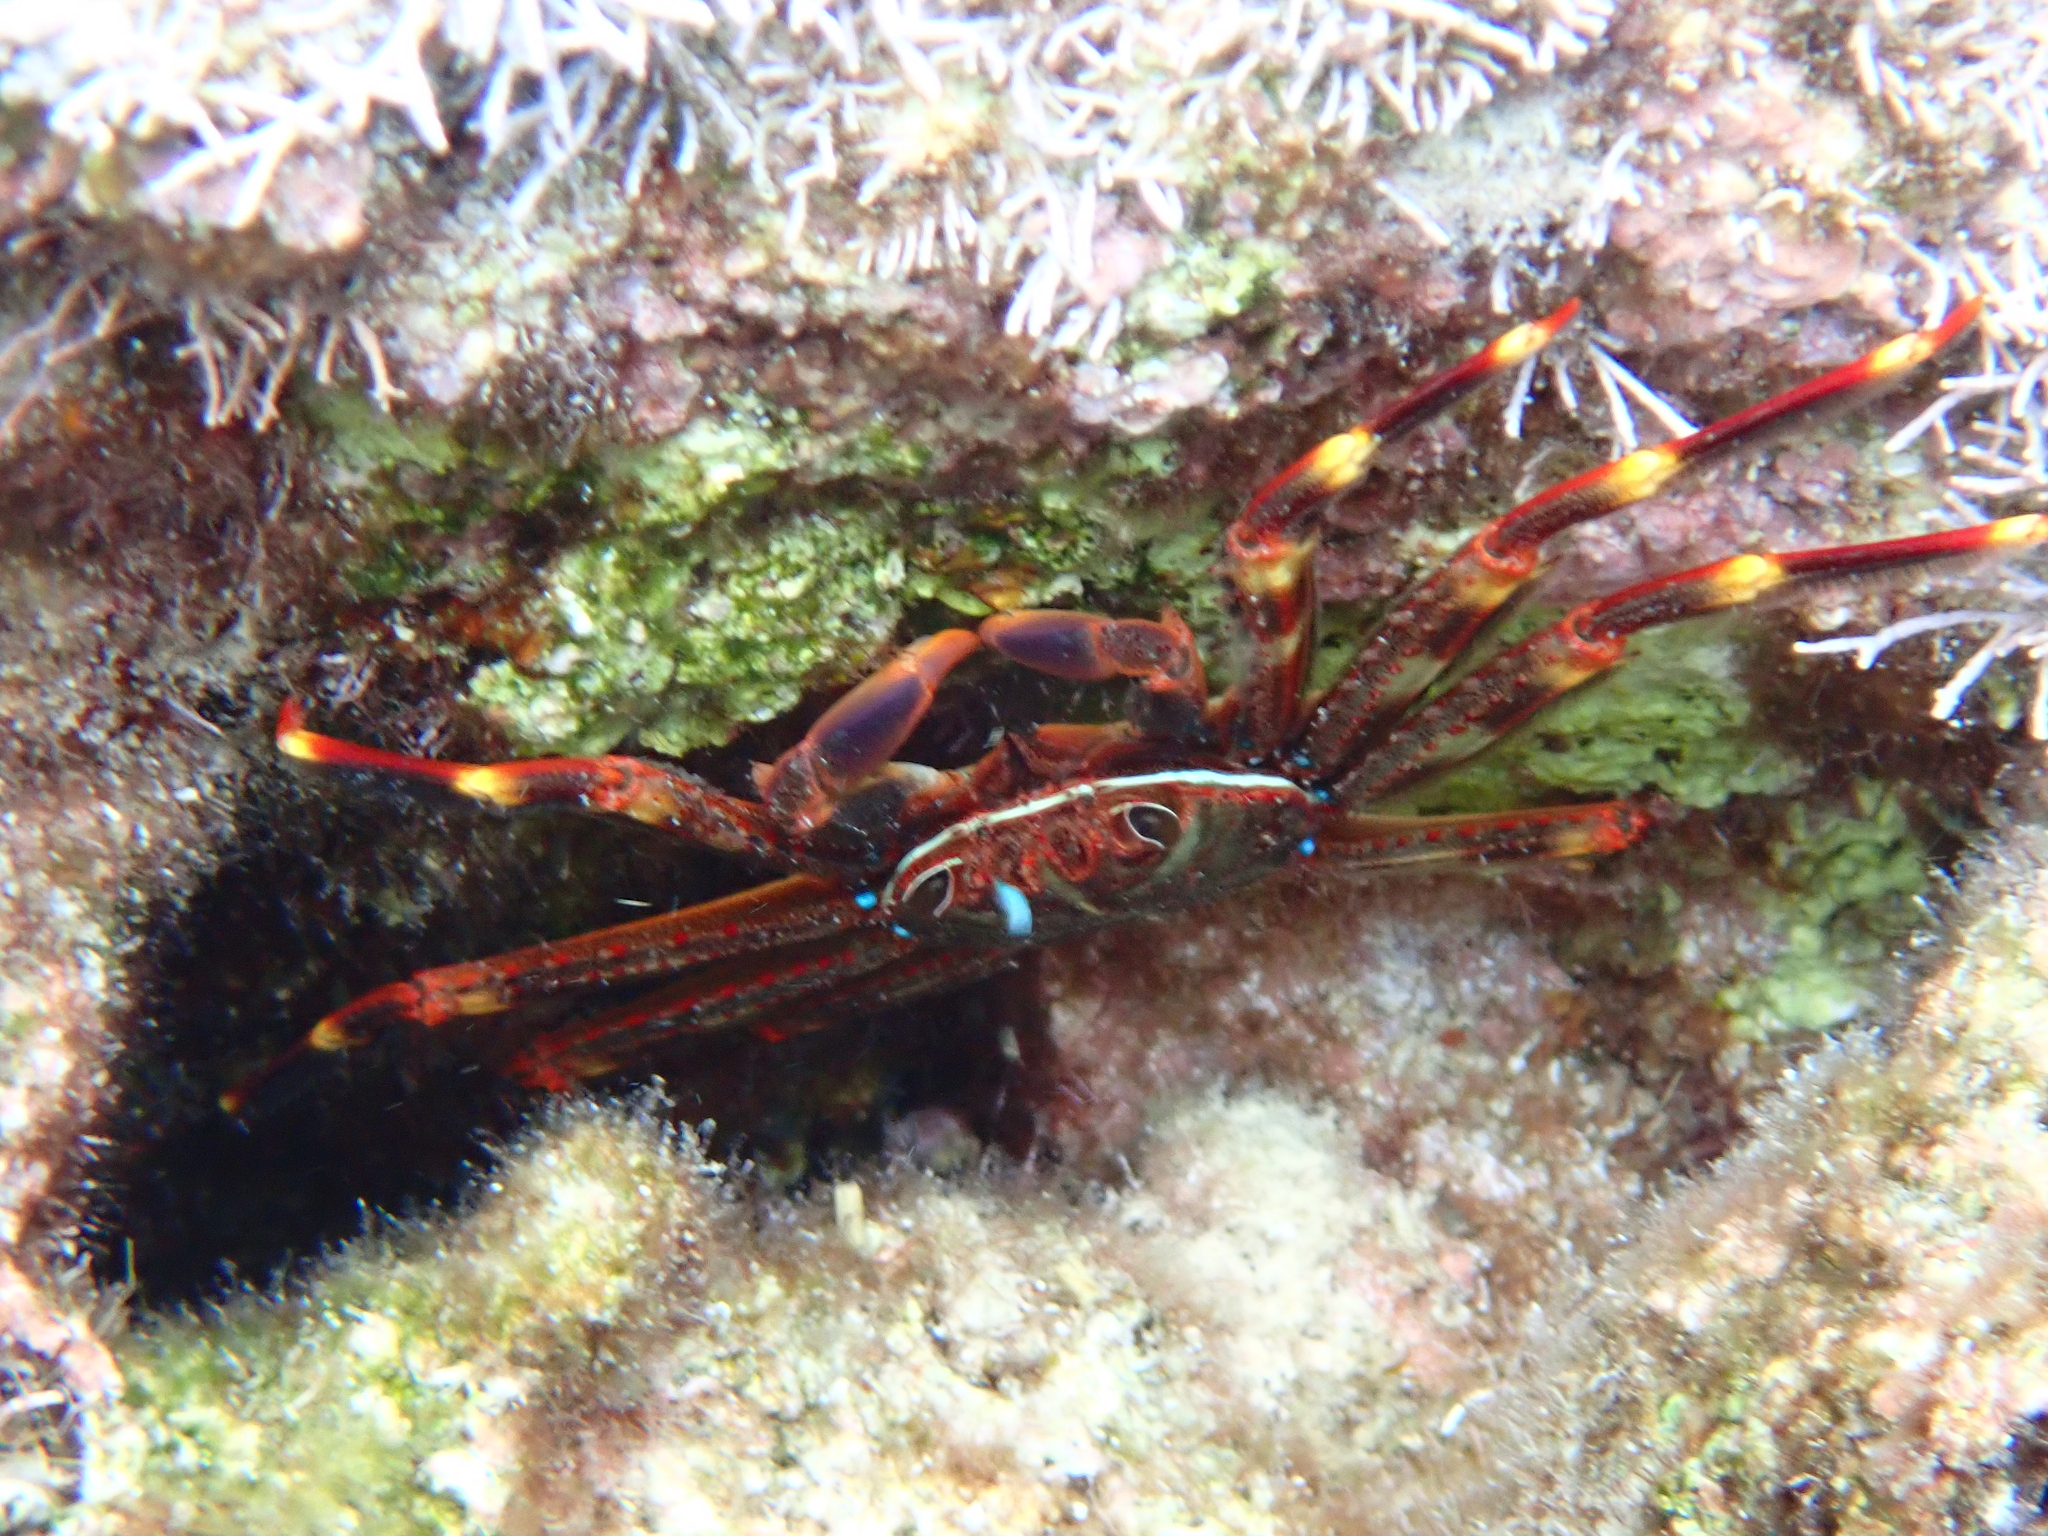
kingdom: Animalia
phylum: Arthropoda
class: Malacostraca
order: Decapoda
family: Percnidae
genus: Percnon
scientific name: Percnon gibbesi
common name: Nimble spray crab
